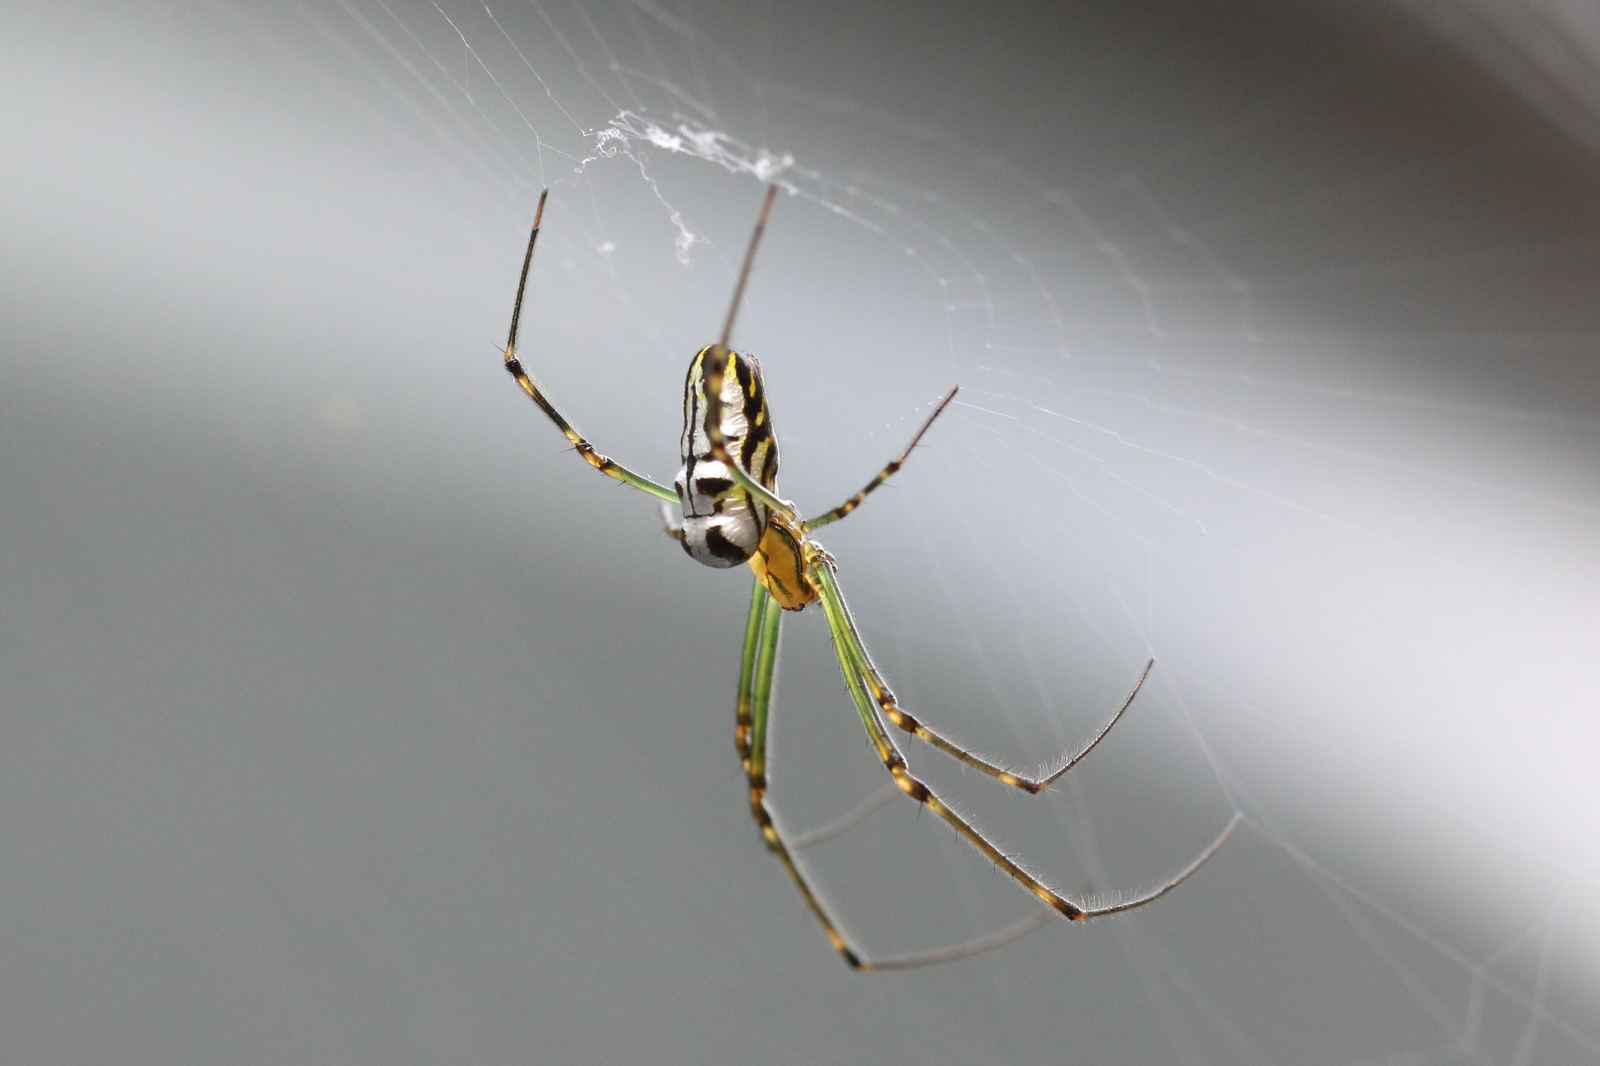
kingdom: Animalia
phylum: Arthropoda
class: Arachnida
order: Araneae
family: Tetragnathidae
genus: Leucauge
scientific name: Leucauge dromedaria
